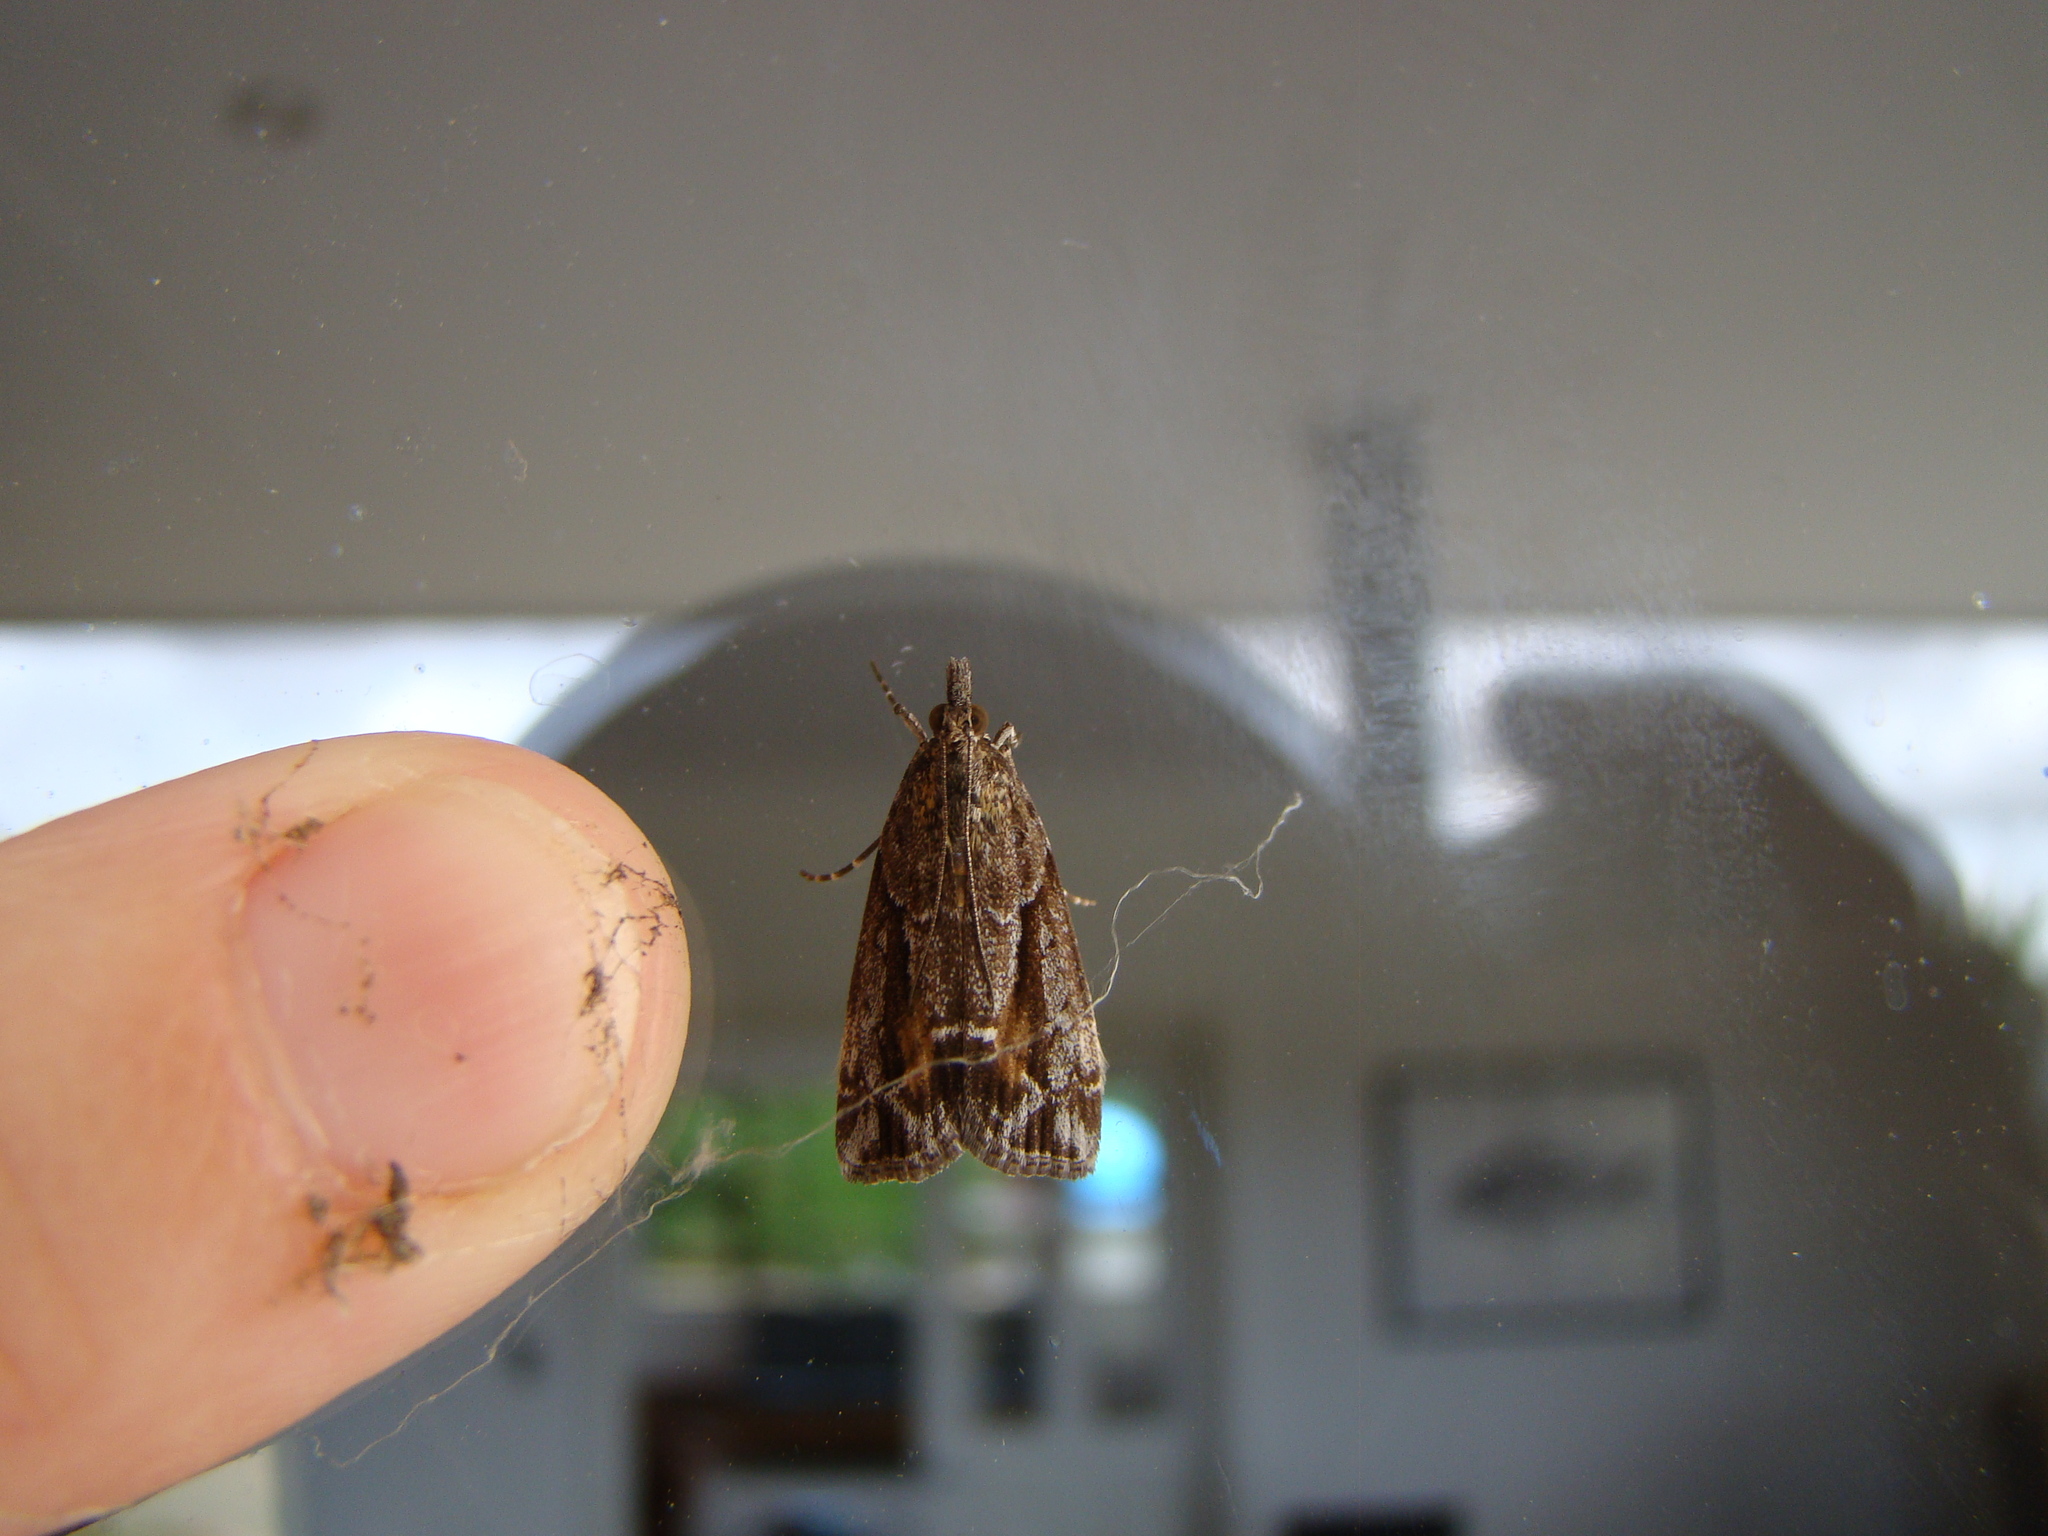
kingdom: Animalia
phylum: Arthropoda
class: Insecta
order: Lepidoptera
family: Crambidae
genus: Eudonia
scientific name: Eudonia submarginalis
